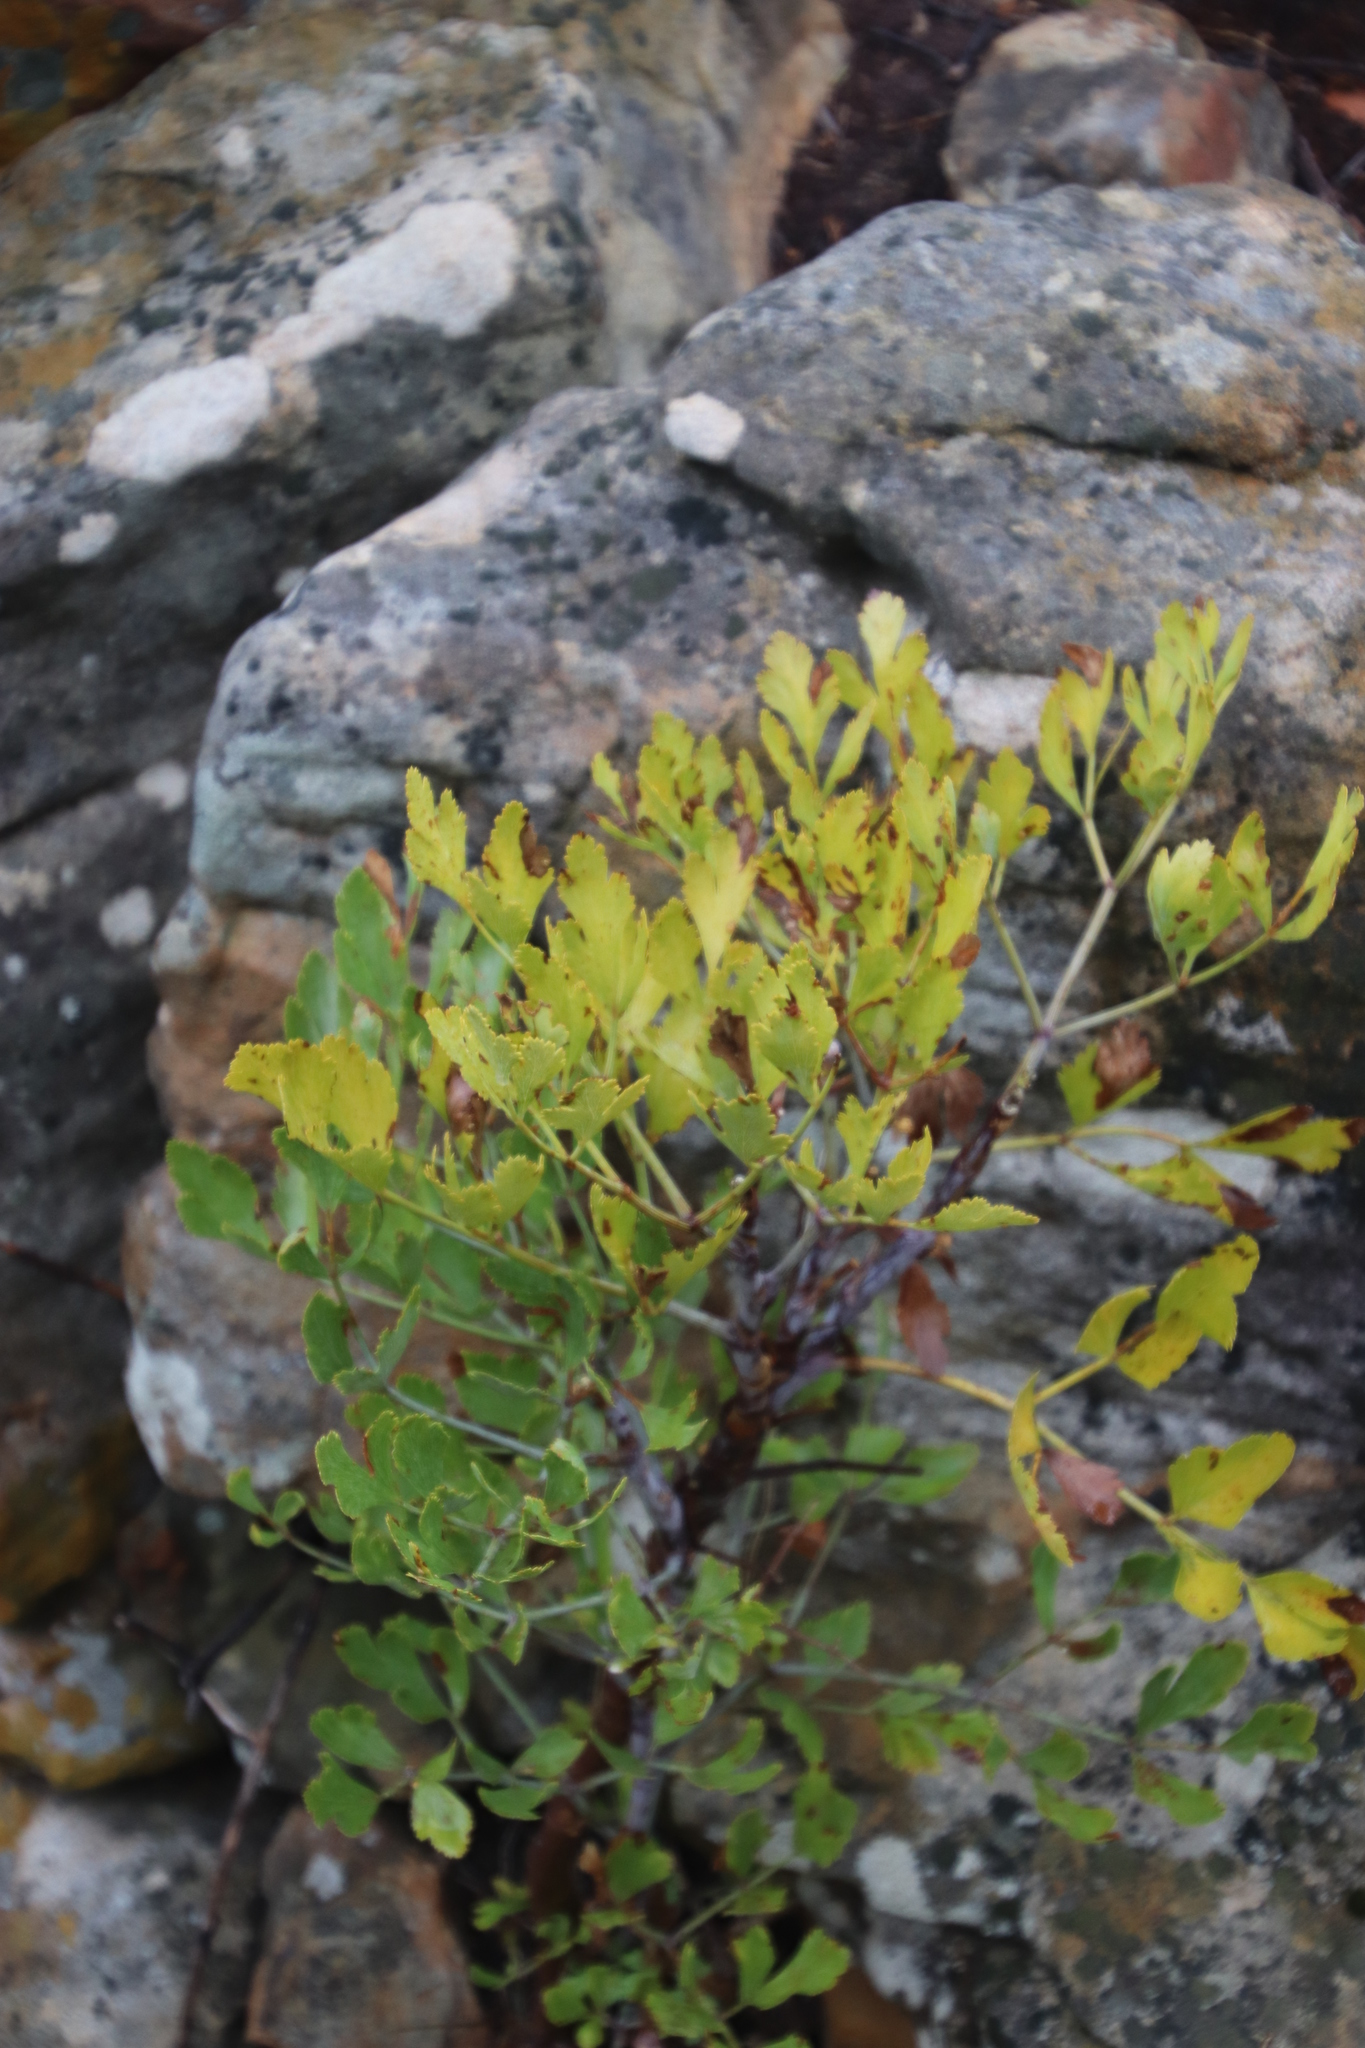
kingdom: Plantae
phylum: Tracheophyta
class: Magnoliopsida
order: Apiales
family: Apiaceae
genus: Notobubon
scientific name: Notobubon galbanum
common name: Blisterbush
